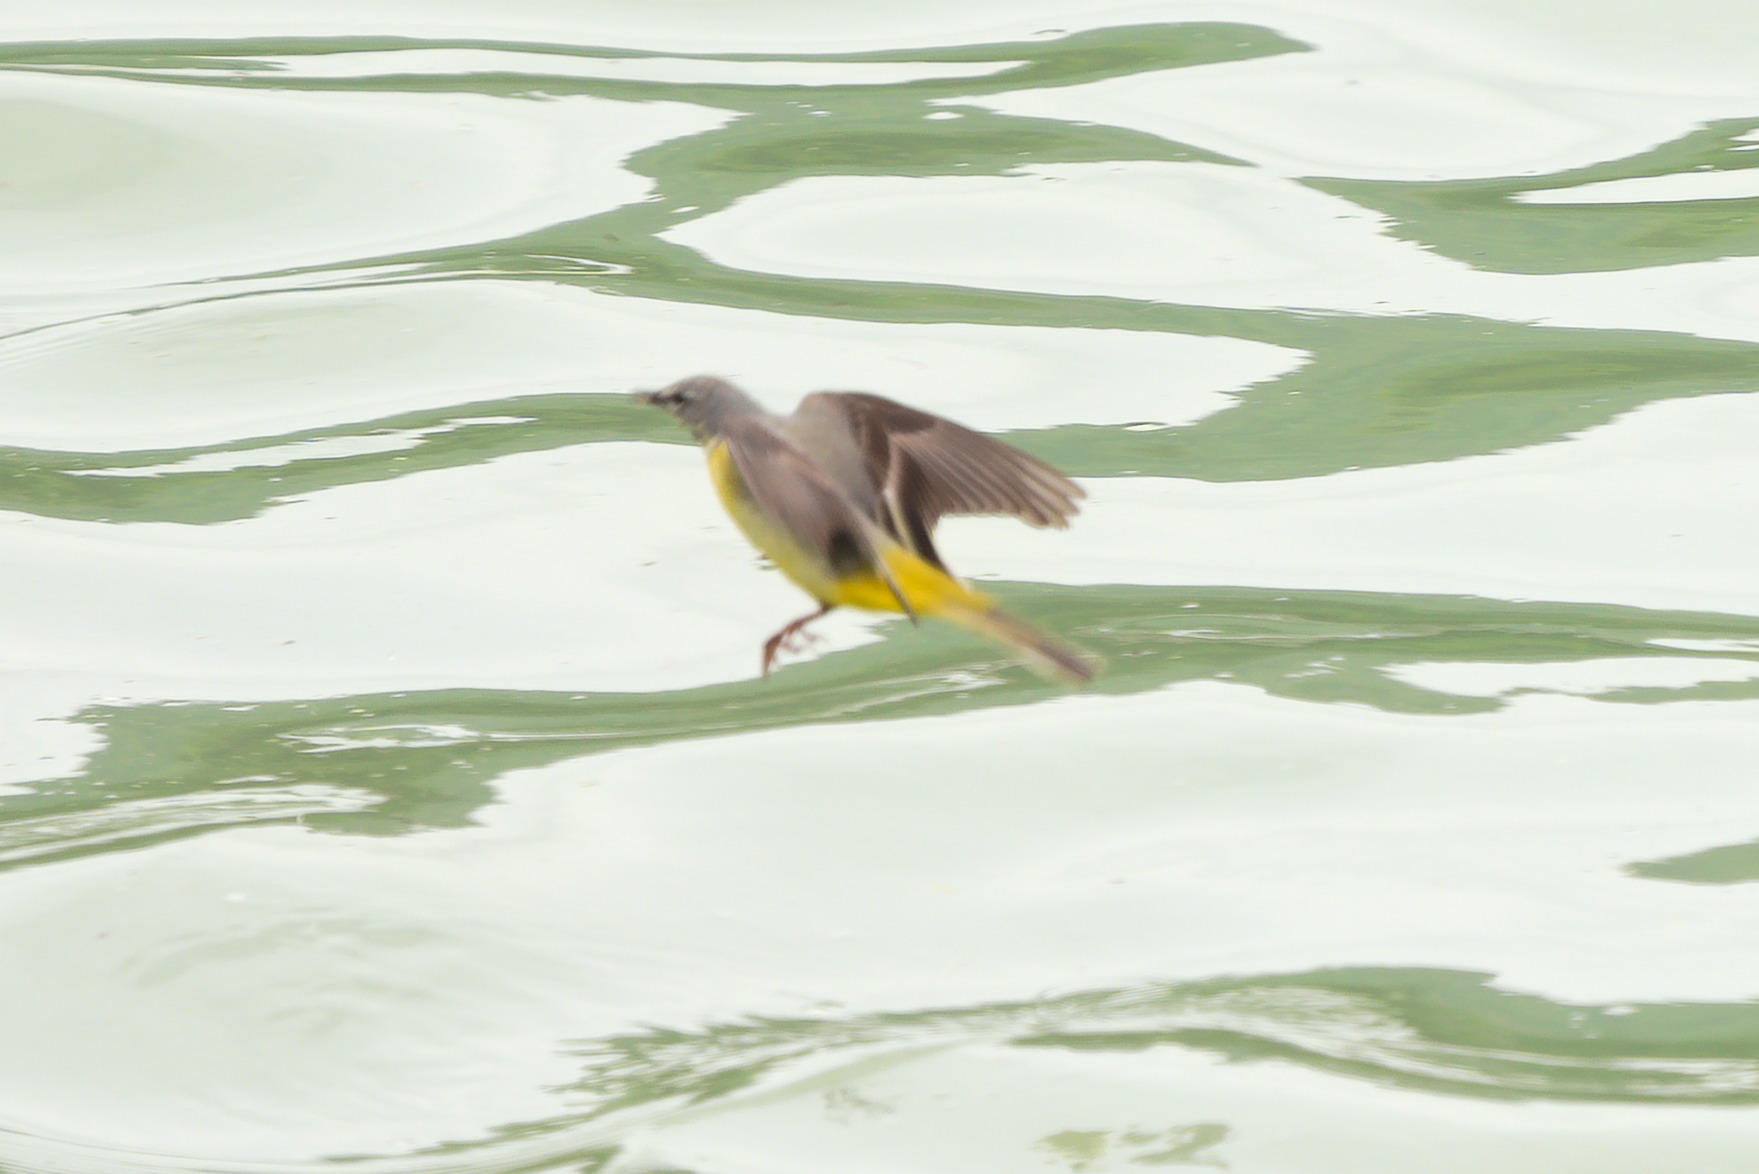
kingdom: Animalia
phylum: Chordata
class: Aves
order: Passeriformes
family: Motacillidae
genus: Motacilla
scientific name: Motacilla cinerea
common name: Grey wagtail
